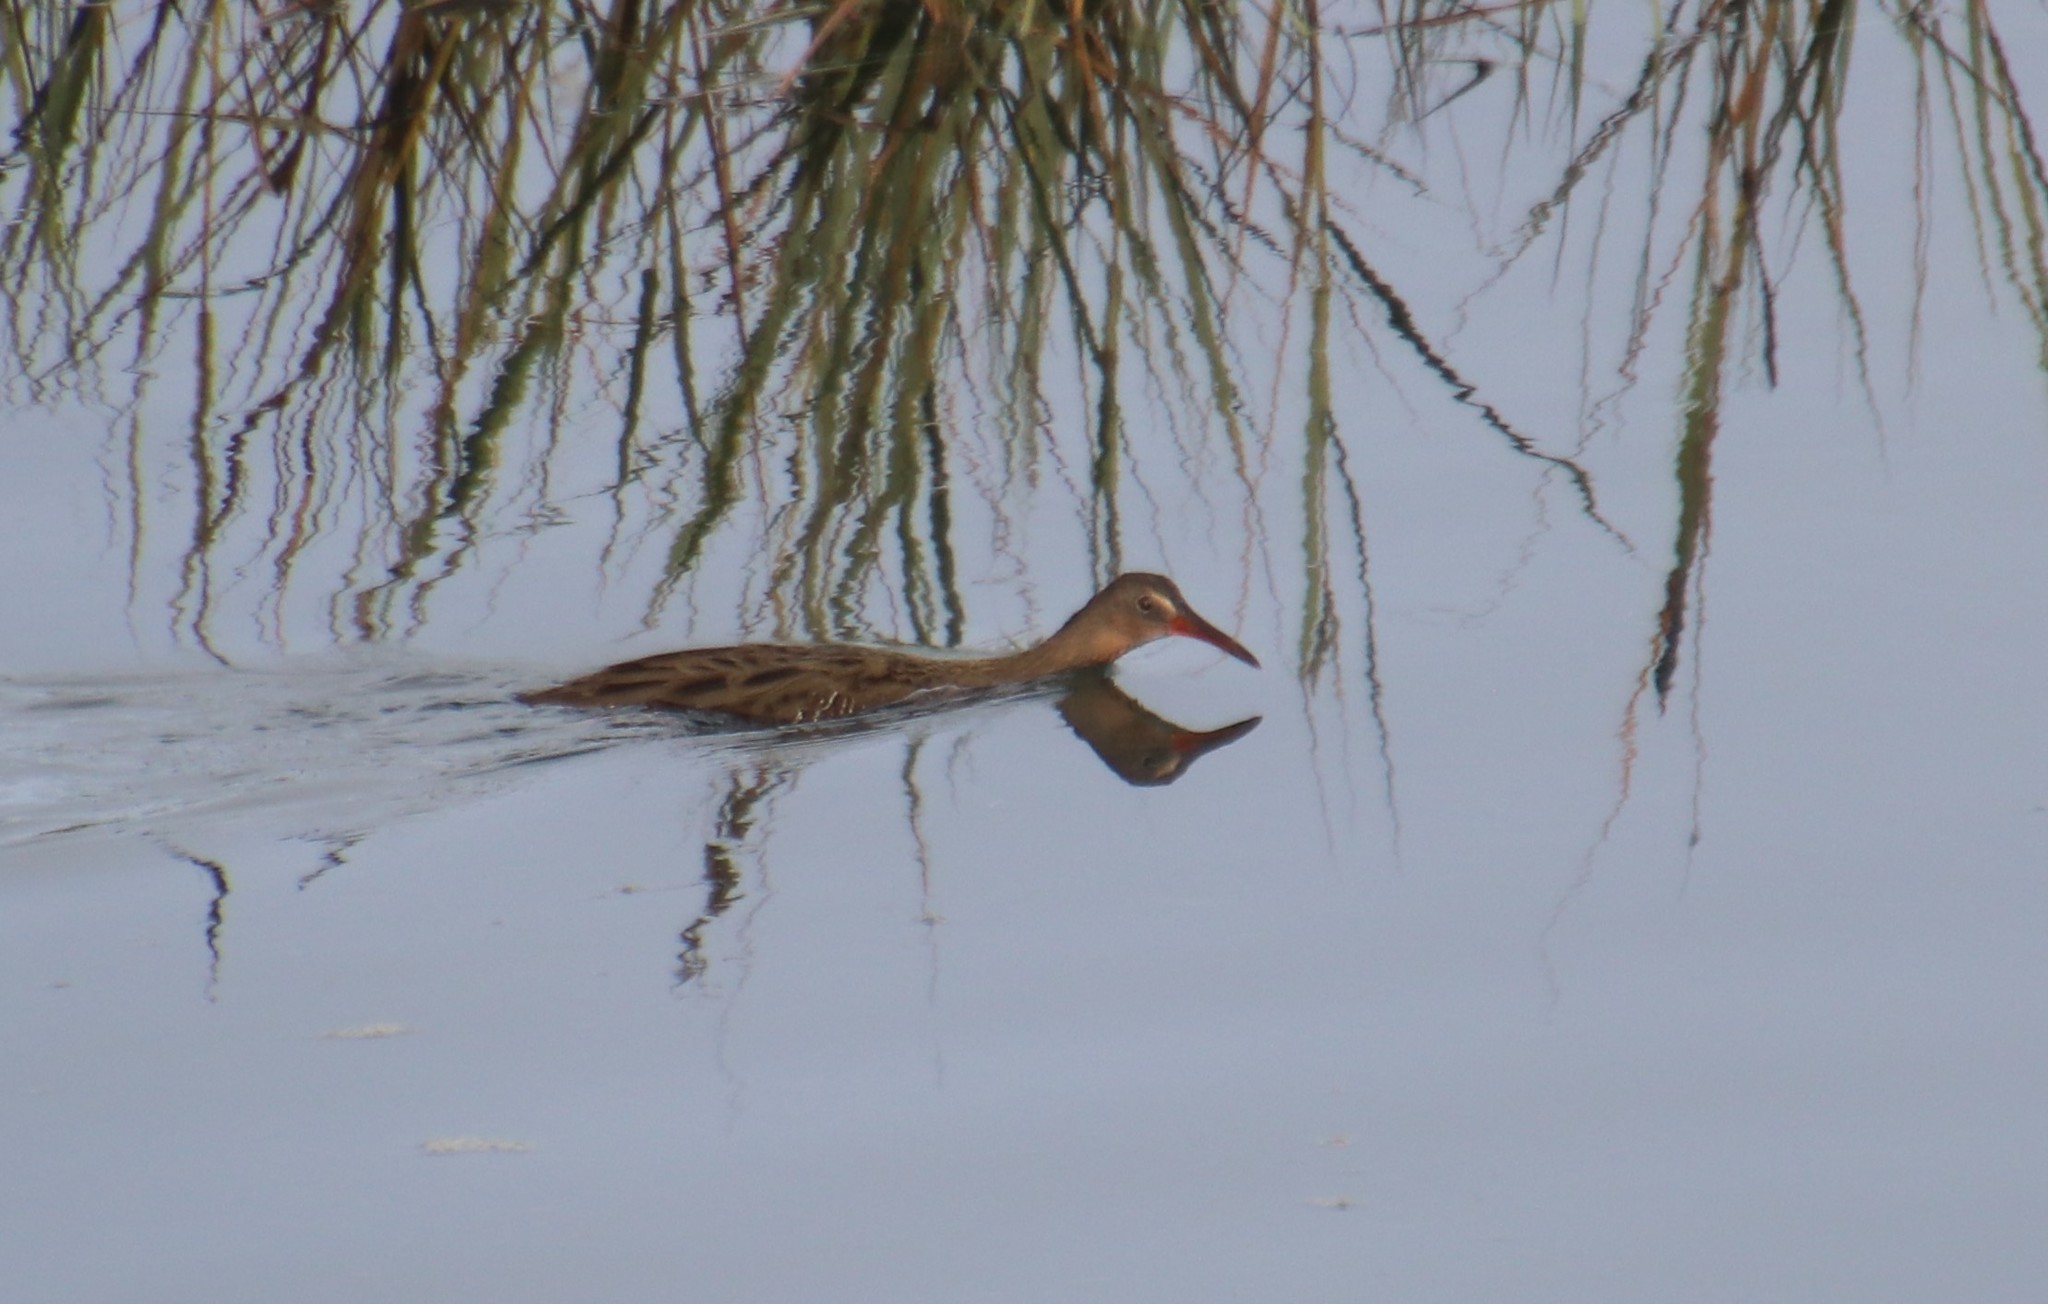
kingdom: Animalia
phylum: Chordata
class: Aves
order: Gruiformes
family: Rallidae
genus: Rallus
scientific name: Rallus obsoletus
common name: Ridgway's rail
